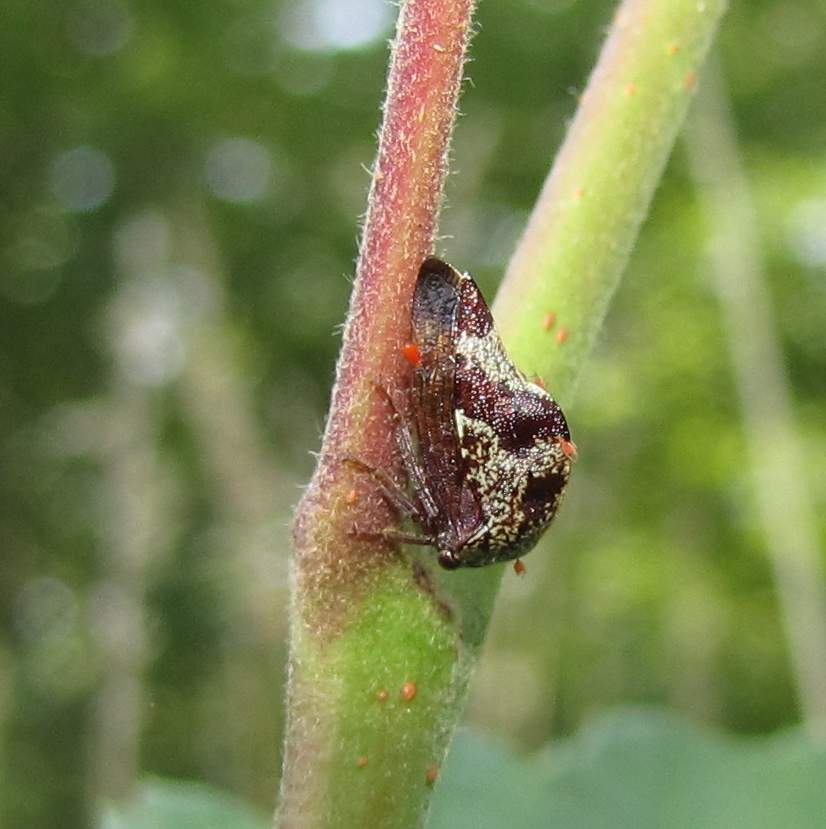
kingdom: Animalia
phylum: Arthropoda
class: Insecta
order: Hemiptera
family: Membracidae
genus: Carynota
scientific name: Carynota marmorata
